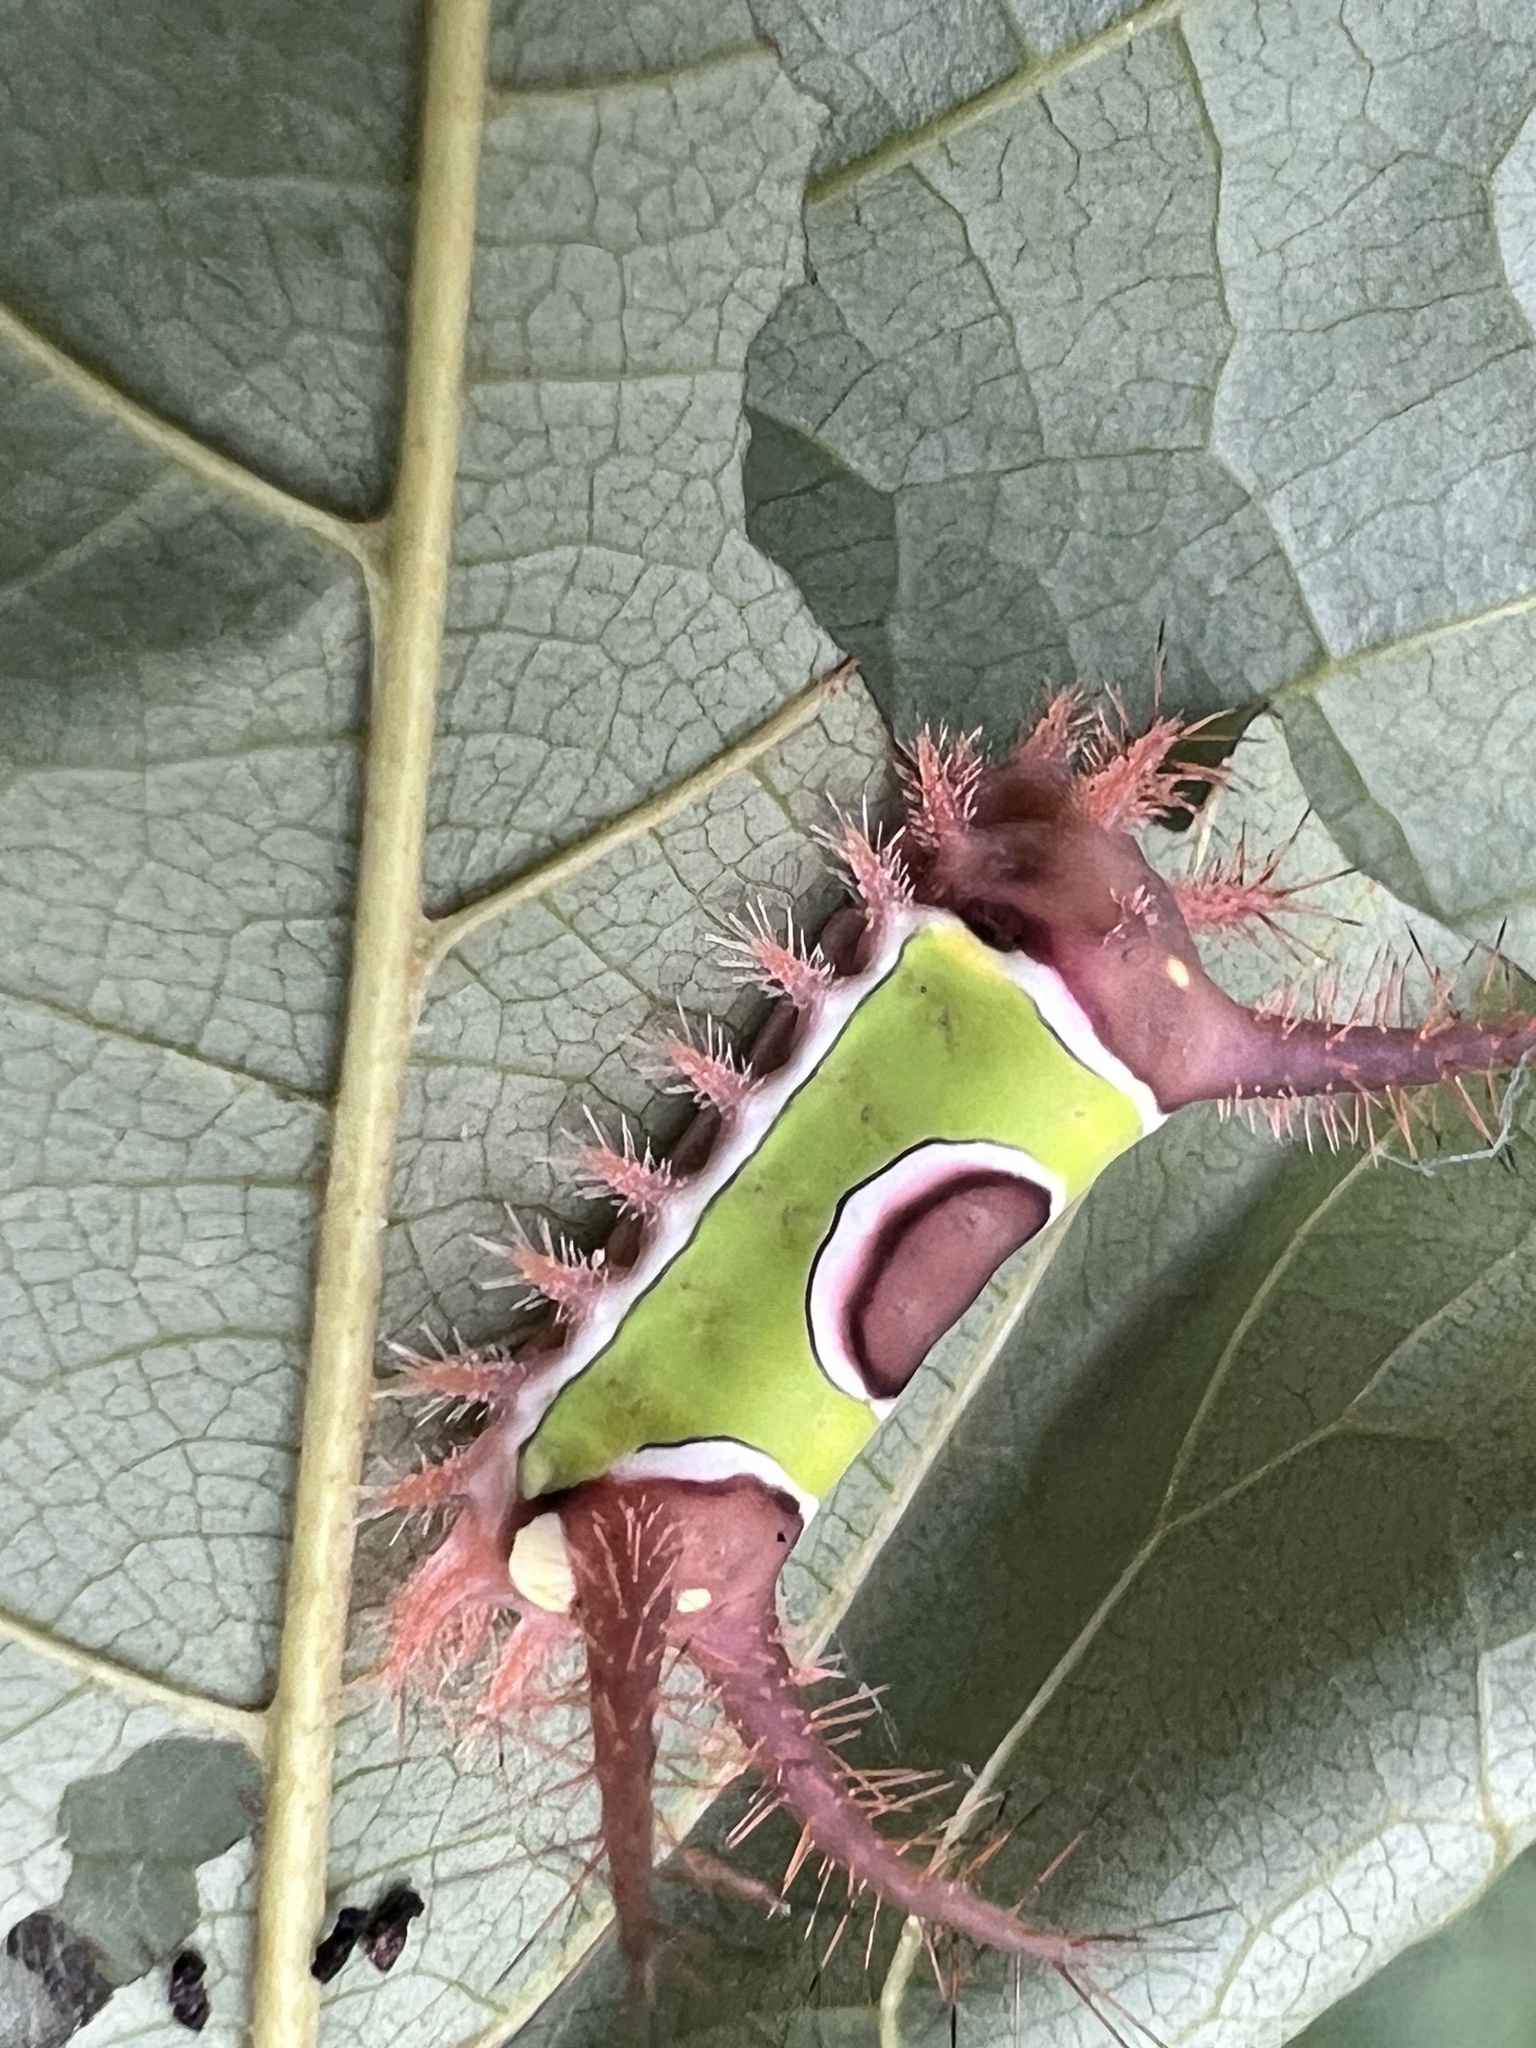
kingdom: Animalia
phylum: Arthropoda
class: Insecta
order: Lepidoptera
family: Limacodidae
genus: Acharia
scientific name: Acharia stimulea
